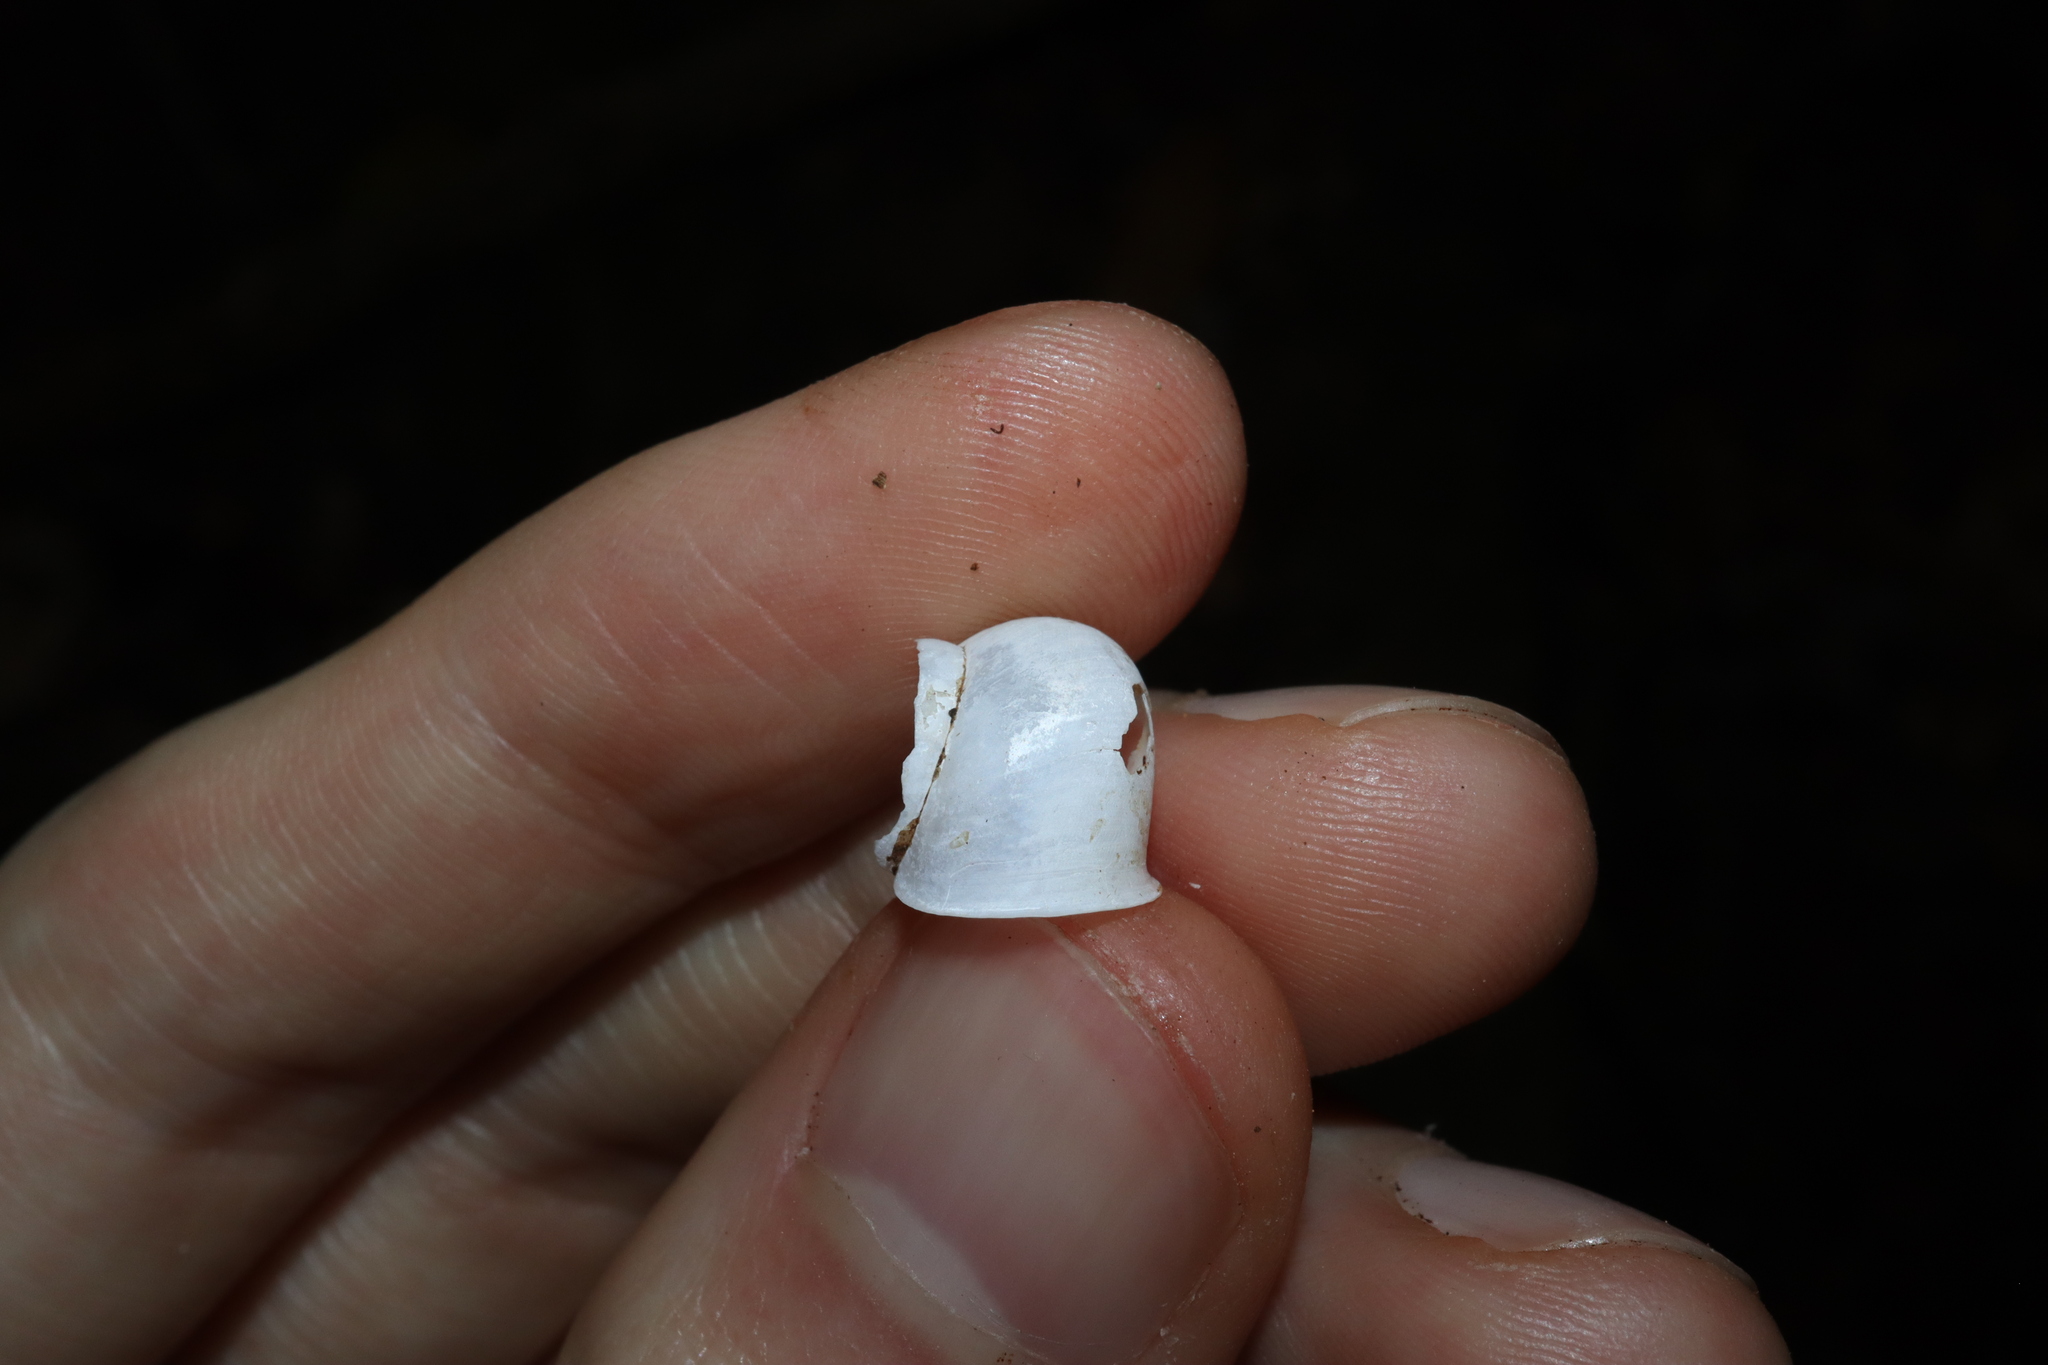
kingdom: Animalia
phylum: Mollusca
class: Gastropoda
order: Architaenioglossa
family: Cyclophoridae
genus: Leptopoma
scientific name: Leptopoma perlucidum
